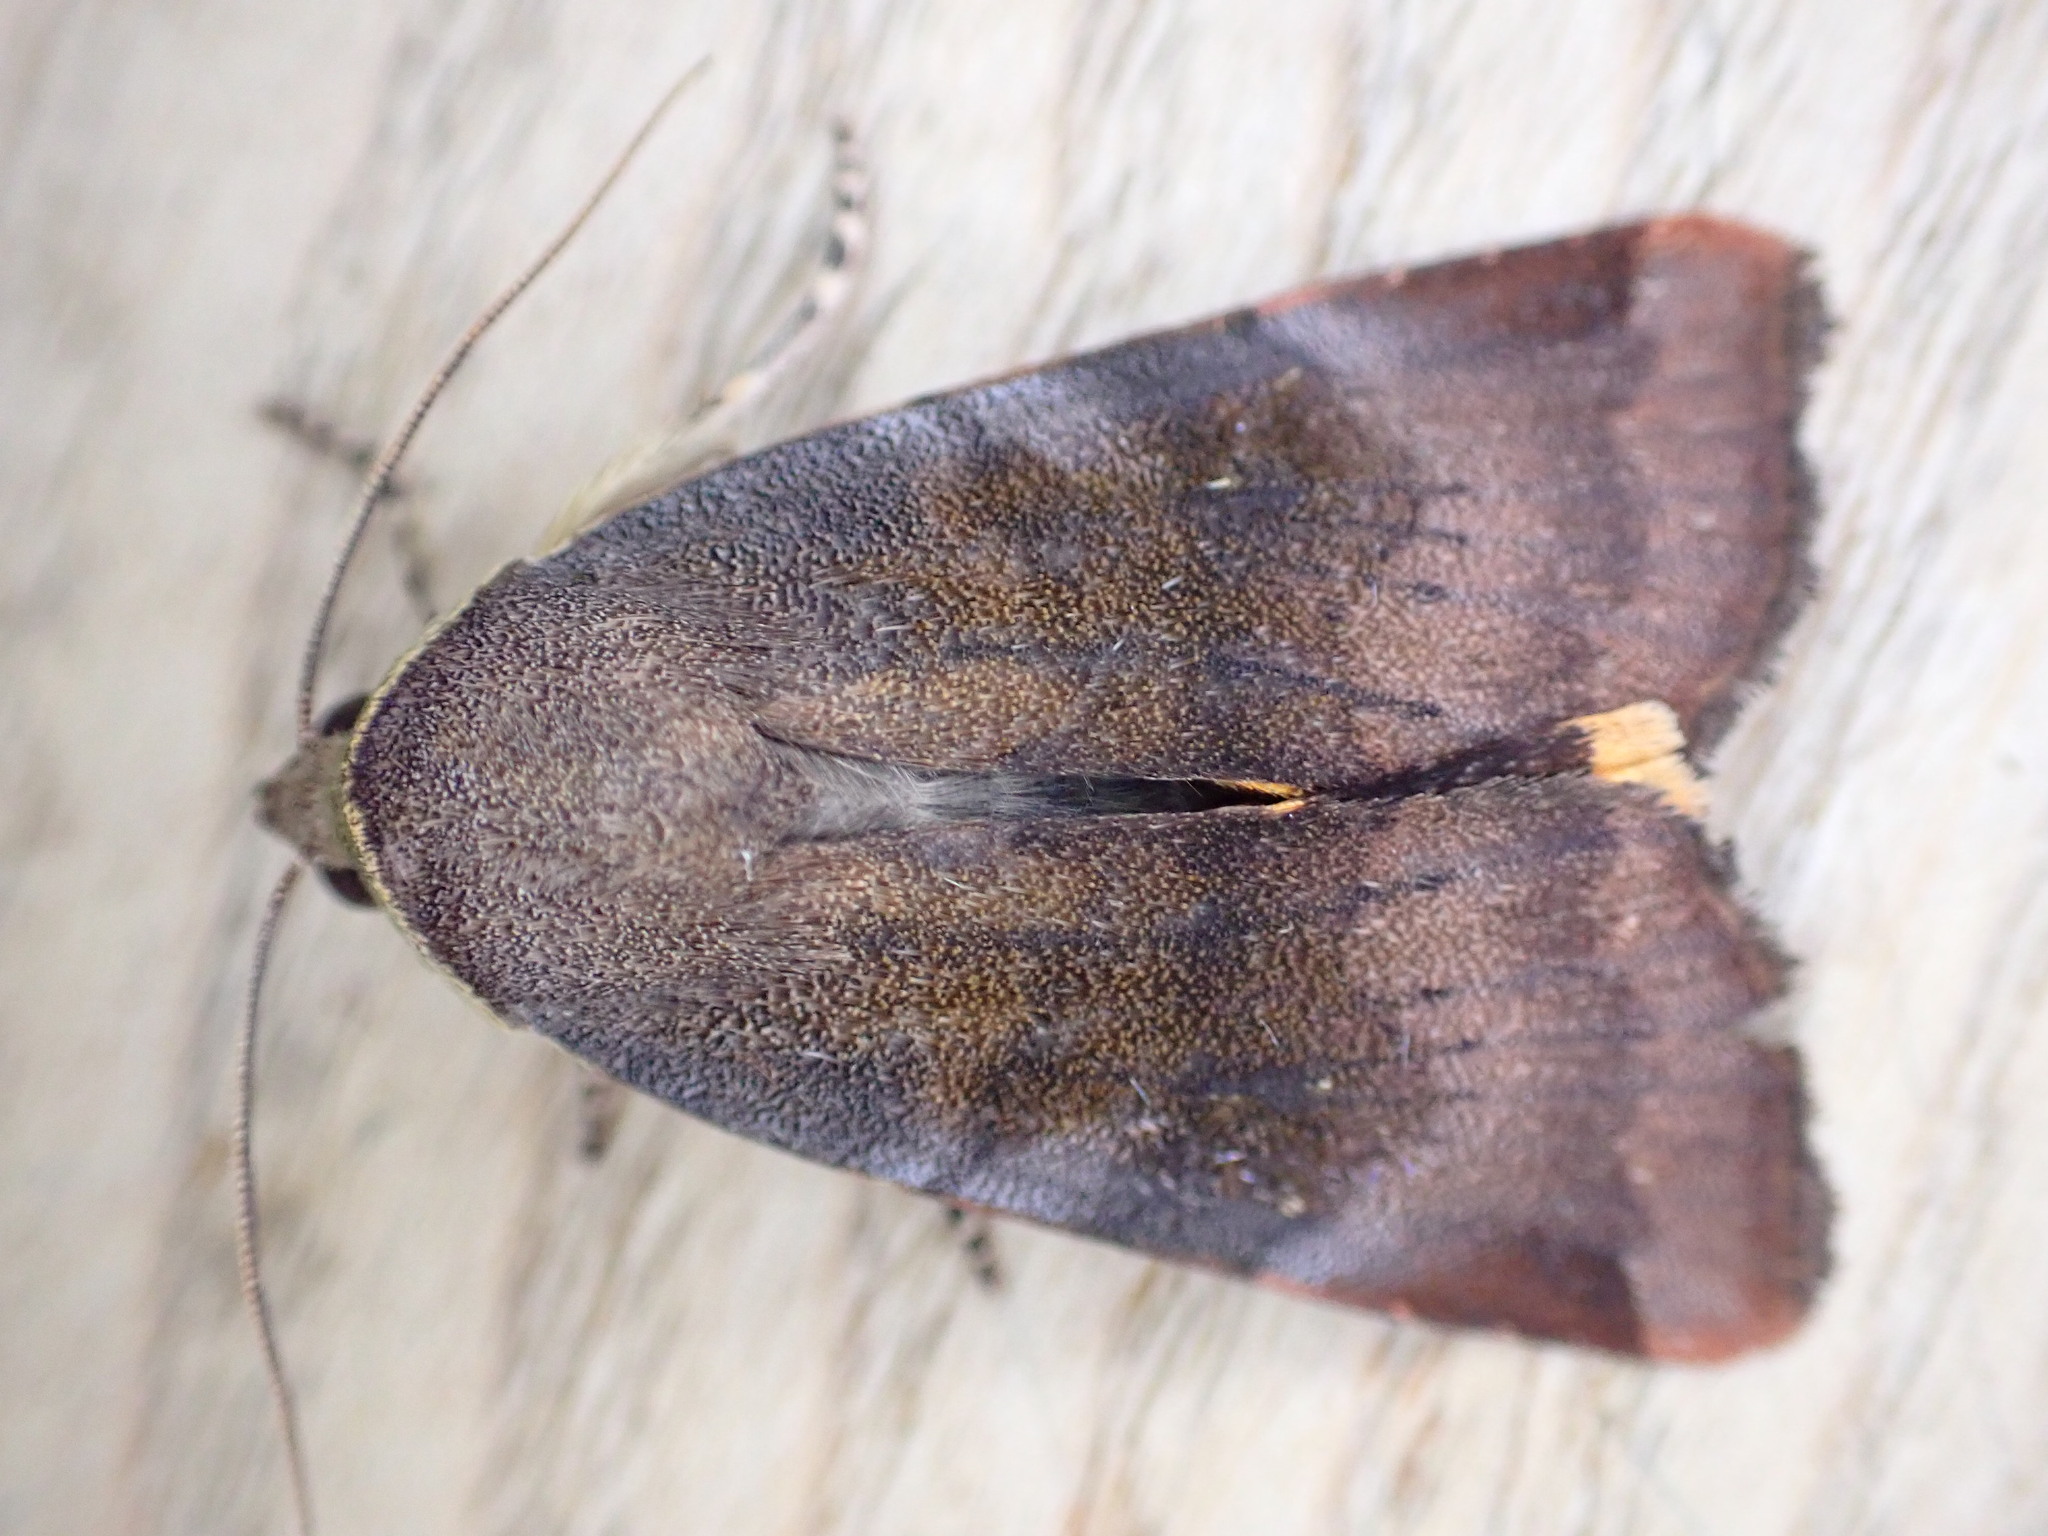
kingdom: Animalia
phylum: Arthropoda
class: Insecta
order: Lepidoptera
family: Noctuidae
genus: Noctua
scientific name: Noctua janthe
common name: Lesser broad-bordered yellow underwing
